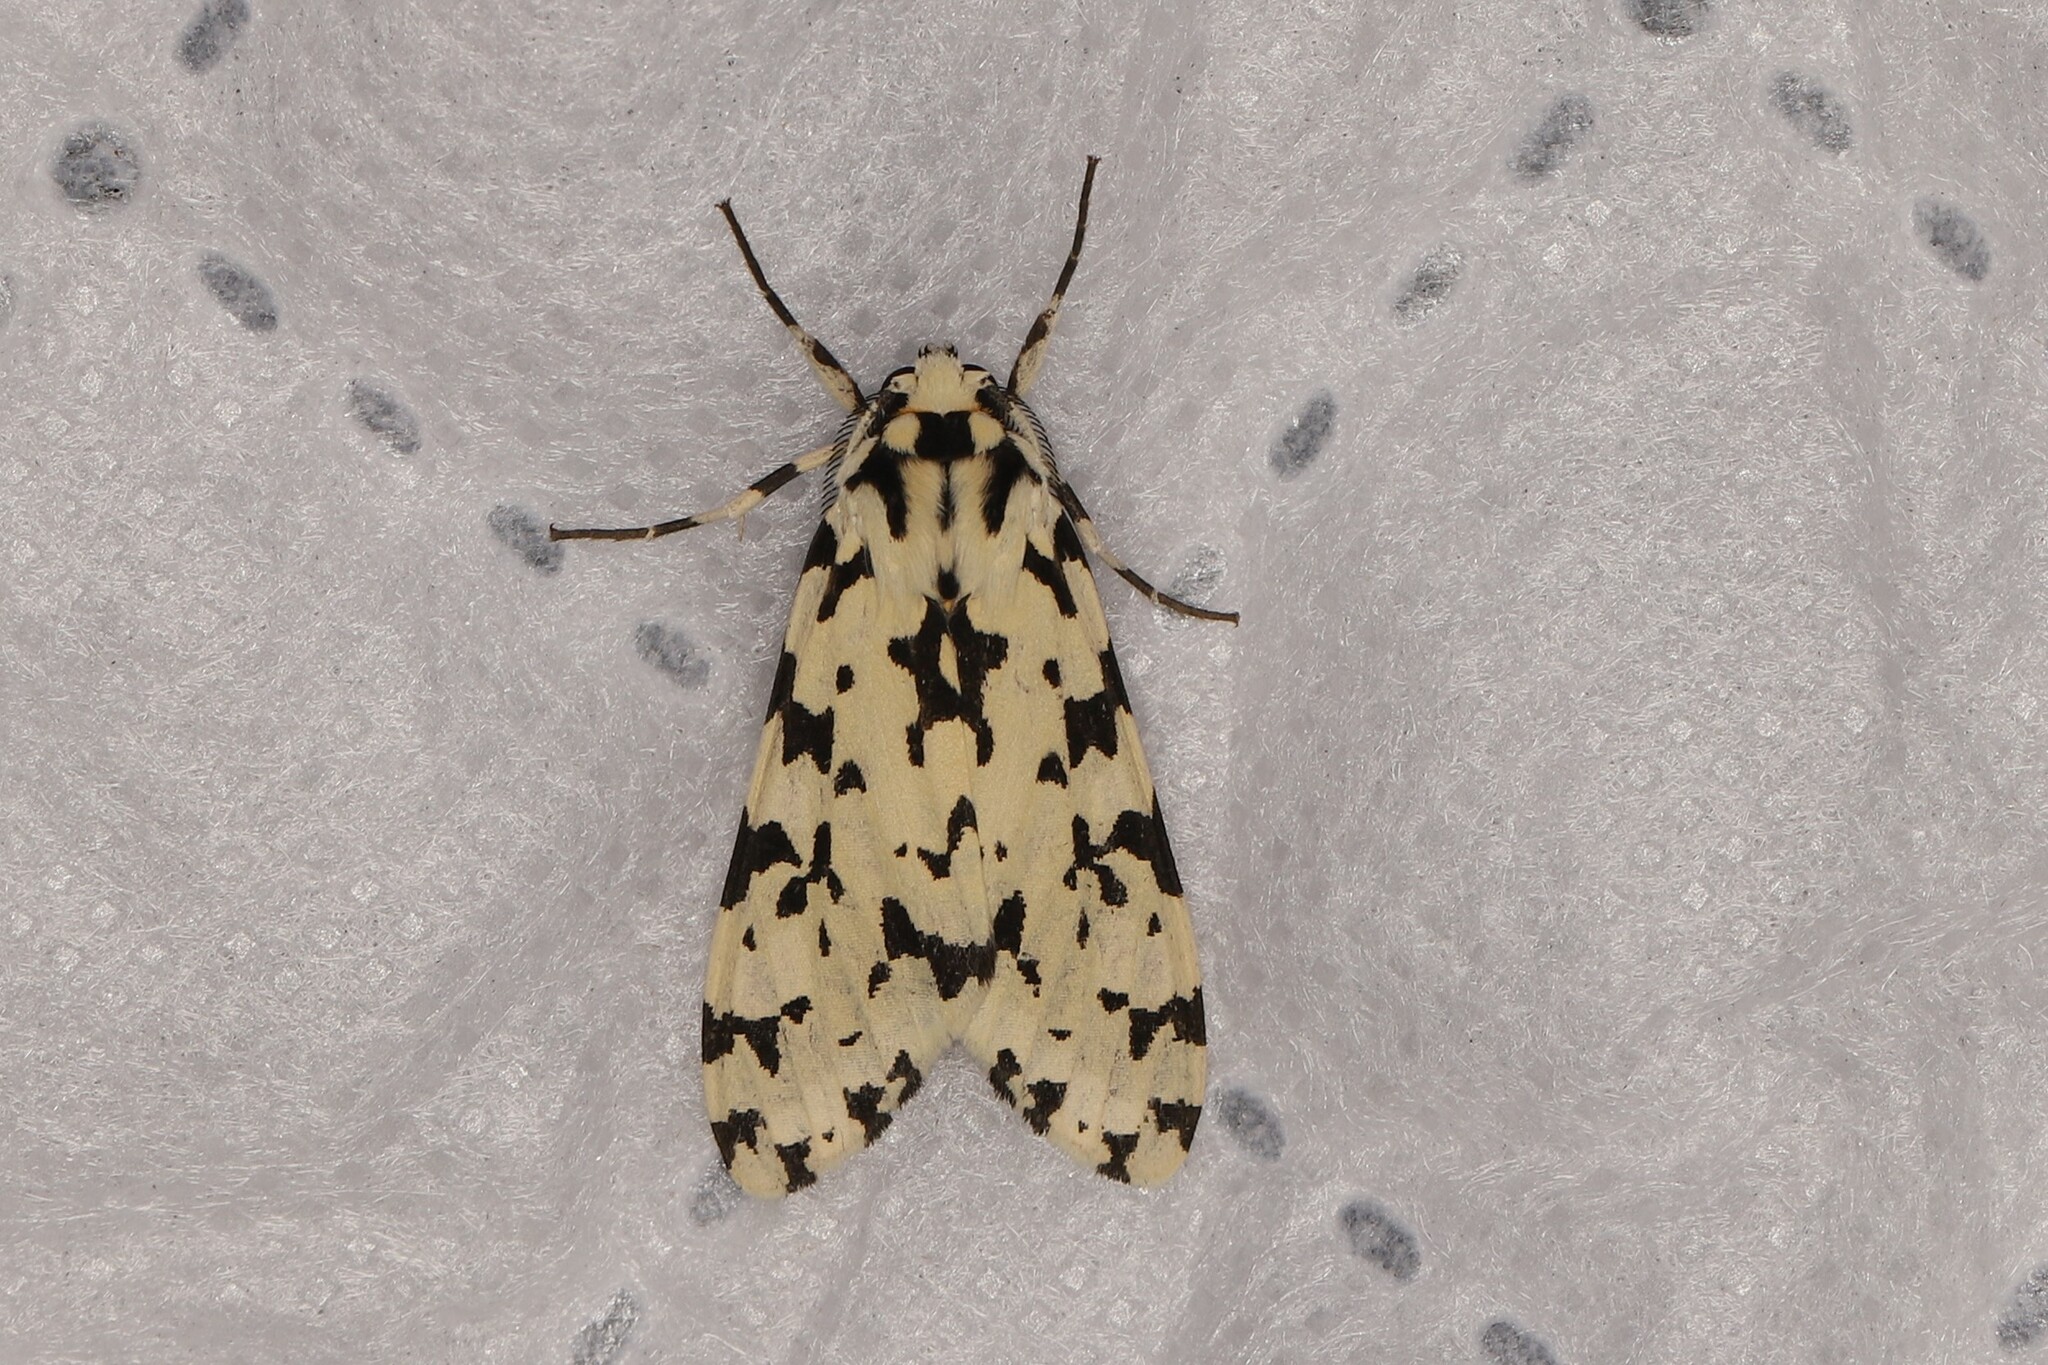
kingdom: Animalia
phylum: Arthropoda
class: Insecta
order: Lepidoptera
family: Erebidae
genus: Eucereon
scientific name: Eucereon tigrata
